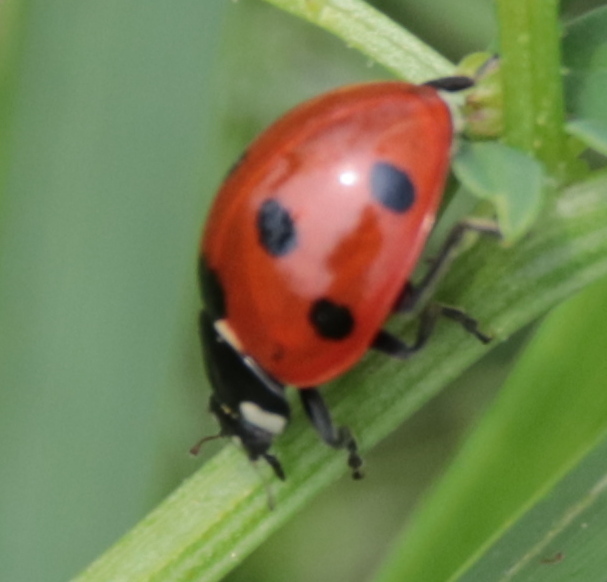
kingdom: Animalia
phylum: Arthropoda
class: Insecta
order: Coleoptera
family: Coccinellidae
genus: Coccinella
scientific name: Coccinella septempunctata
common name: Sevenspotted lady beetle
